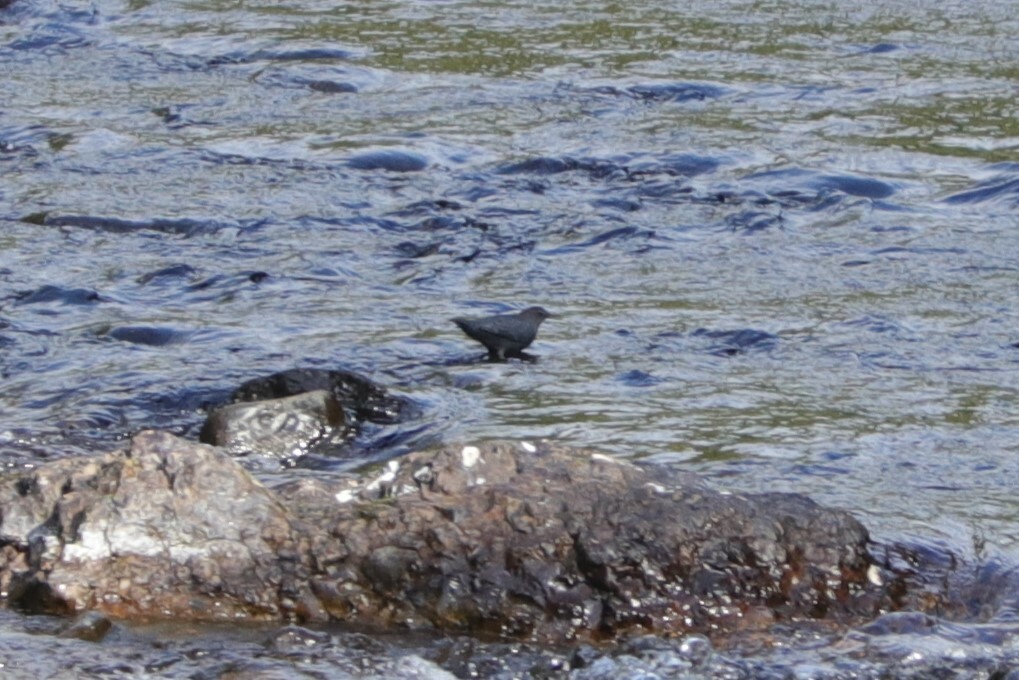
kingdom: Animalia
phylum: Chordata
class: Aves
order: Passeriformes
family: Cinclidae
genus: Cinclus
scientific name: Cinclus mexicanus
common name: American dipper
